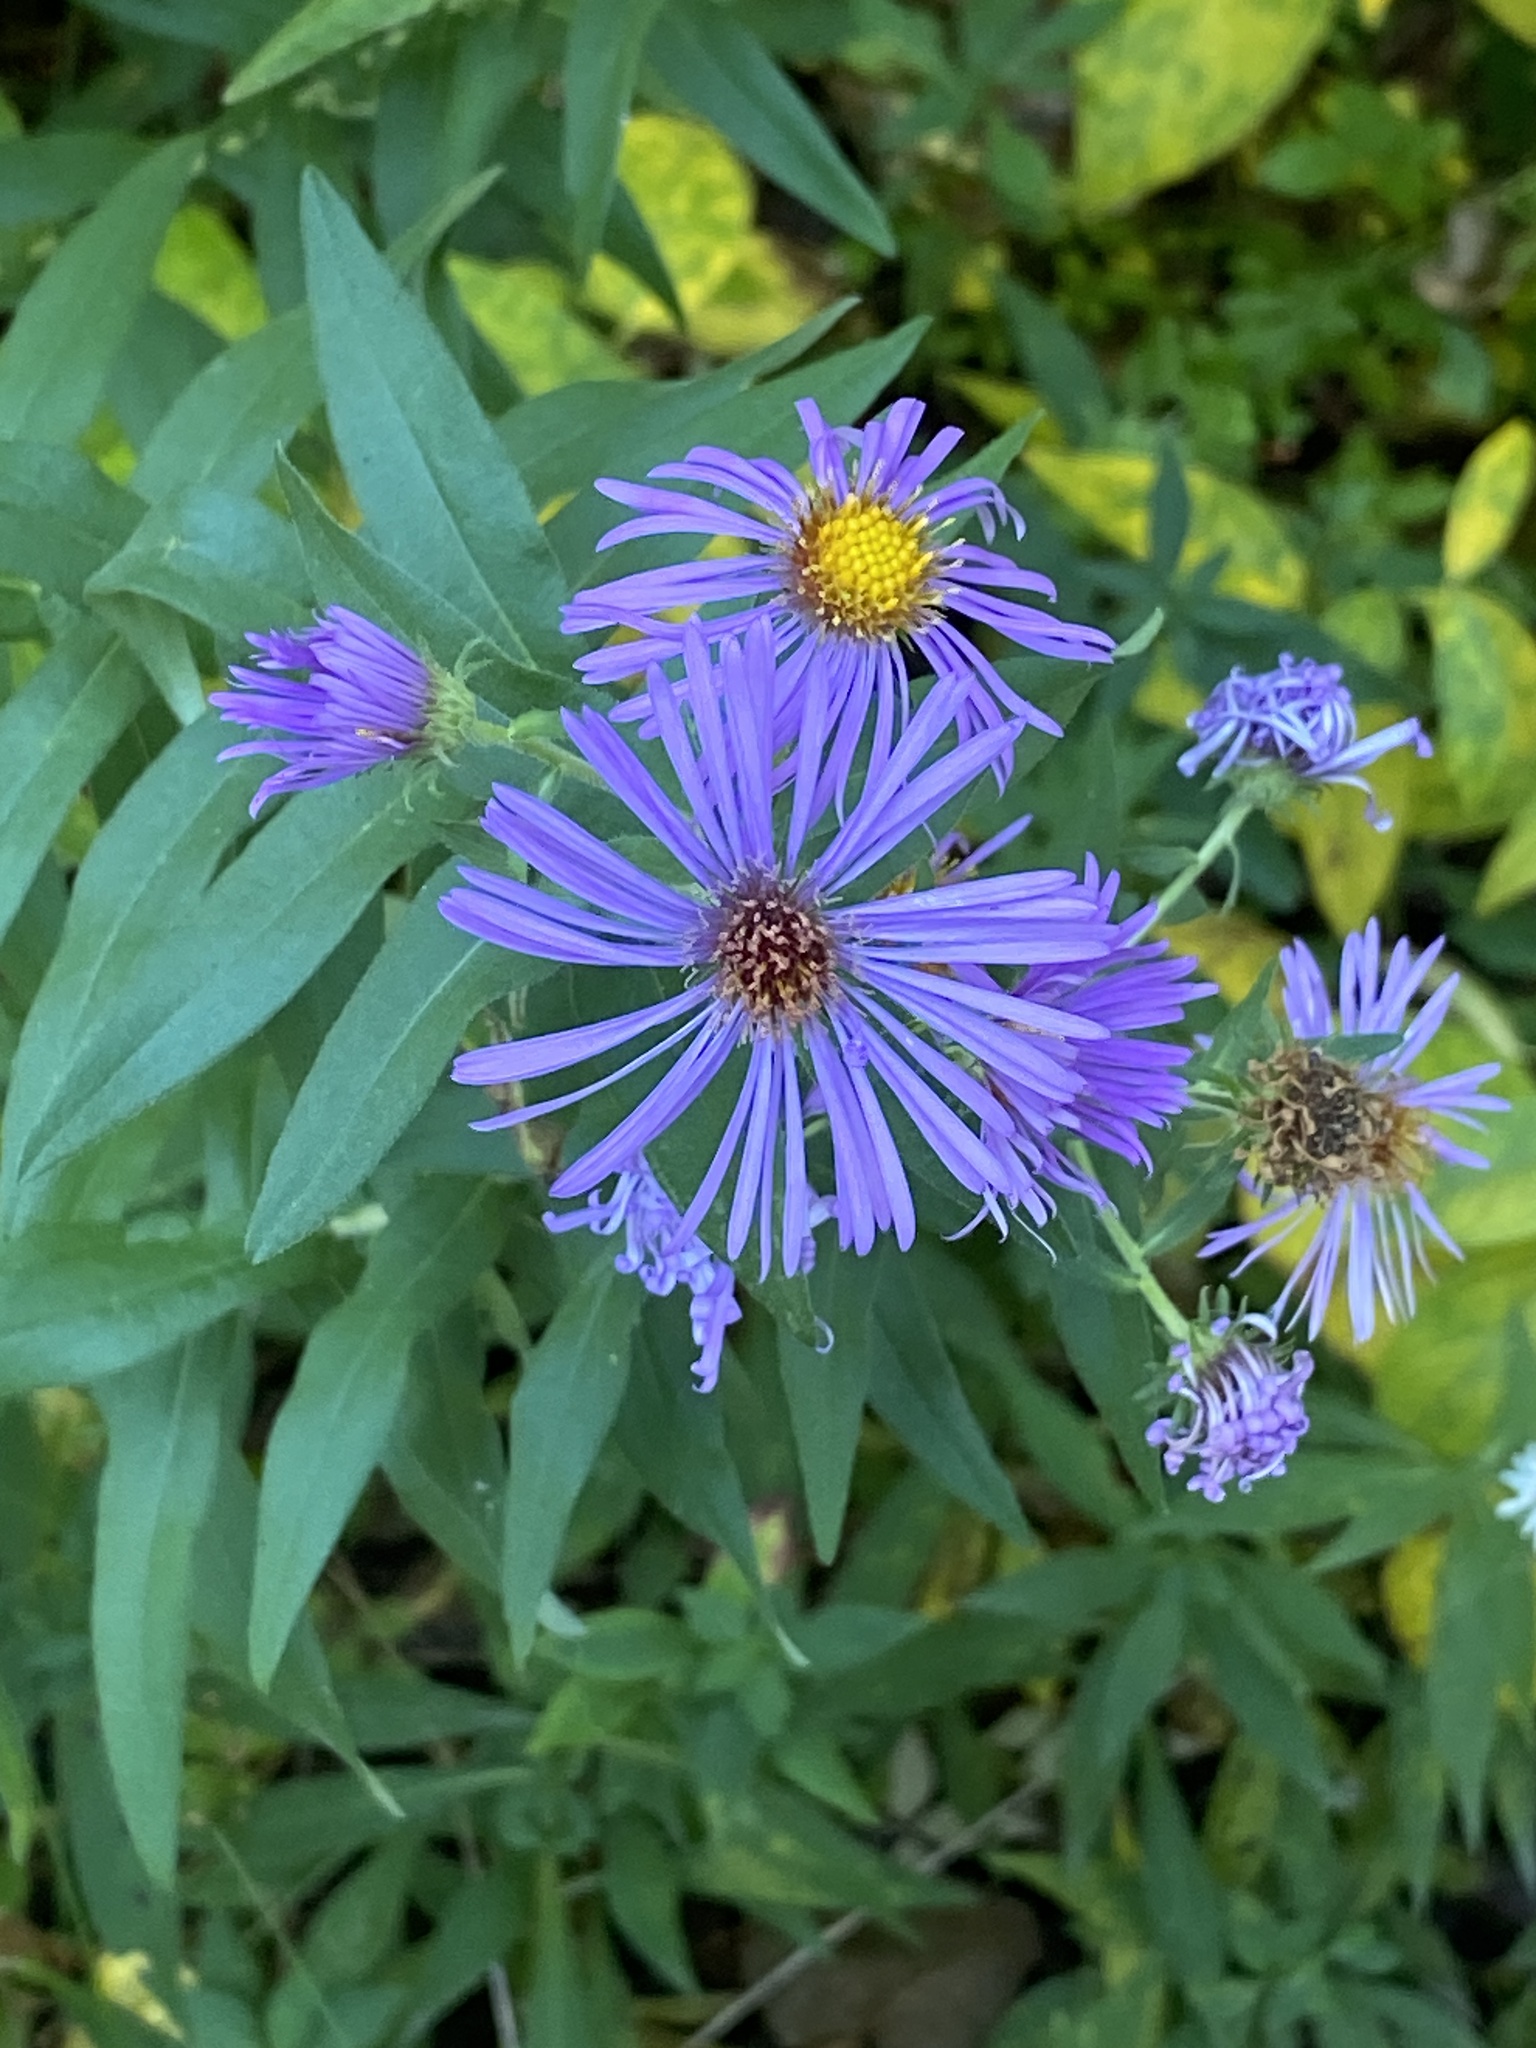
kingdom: Plantae
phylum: Tracheophyta
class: Magnoliopsida
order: Asterales
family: Asteraceae
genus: Symphyotrichum
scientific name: Symphyotrichum novae-angliae
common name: Michaelmas daisy
